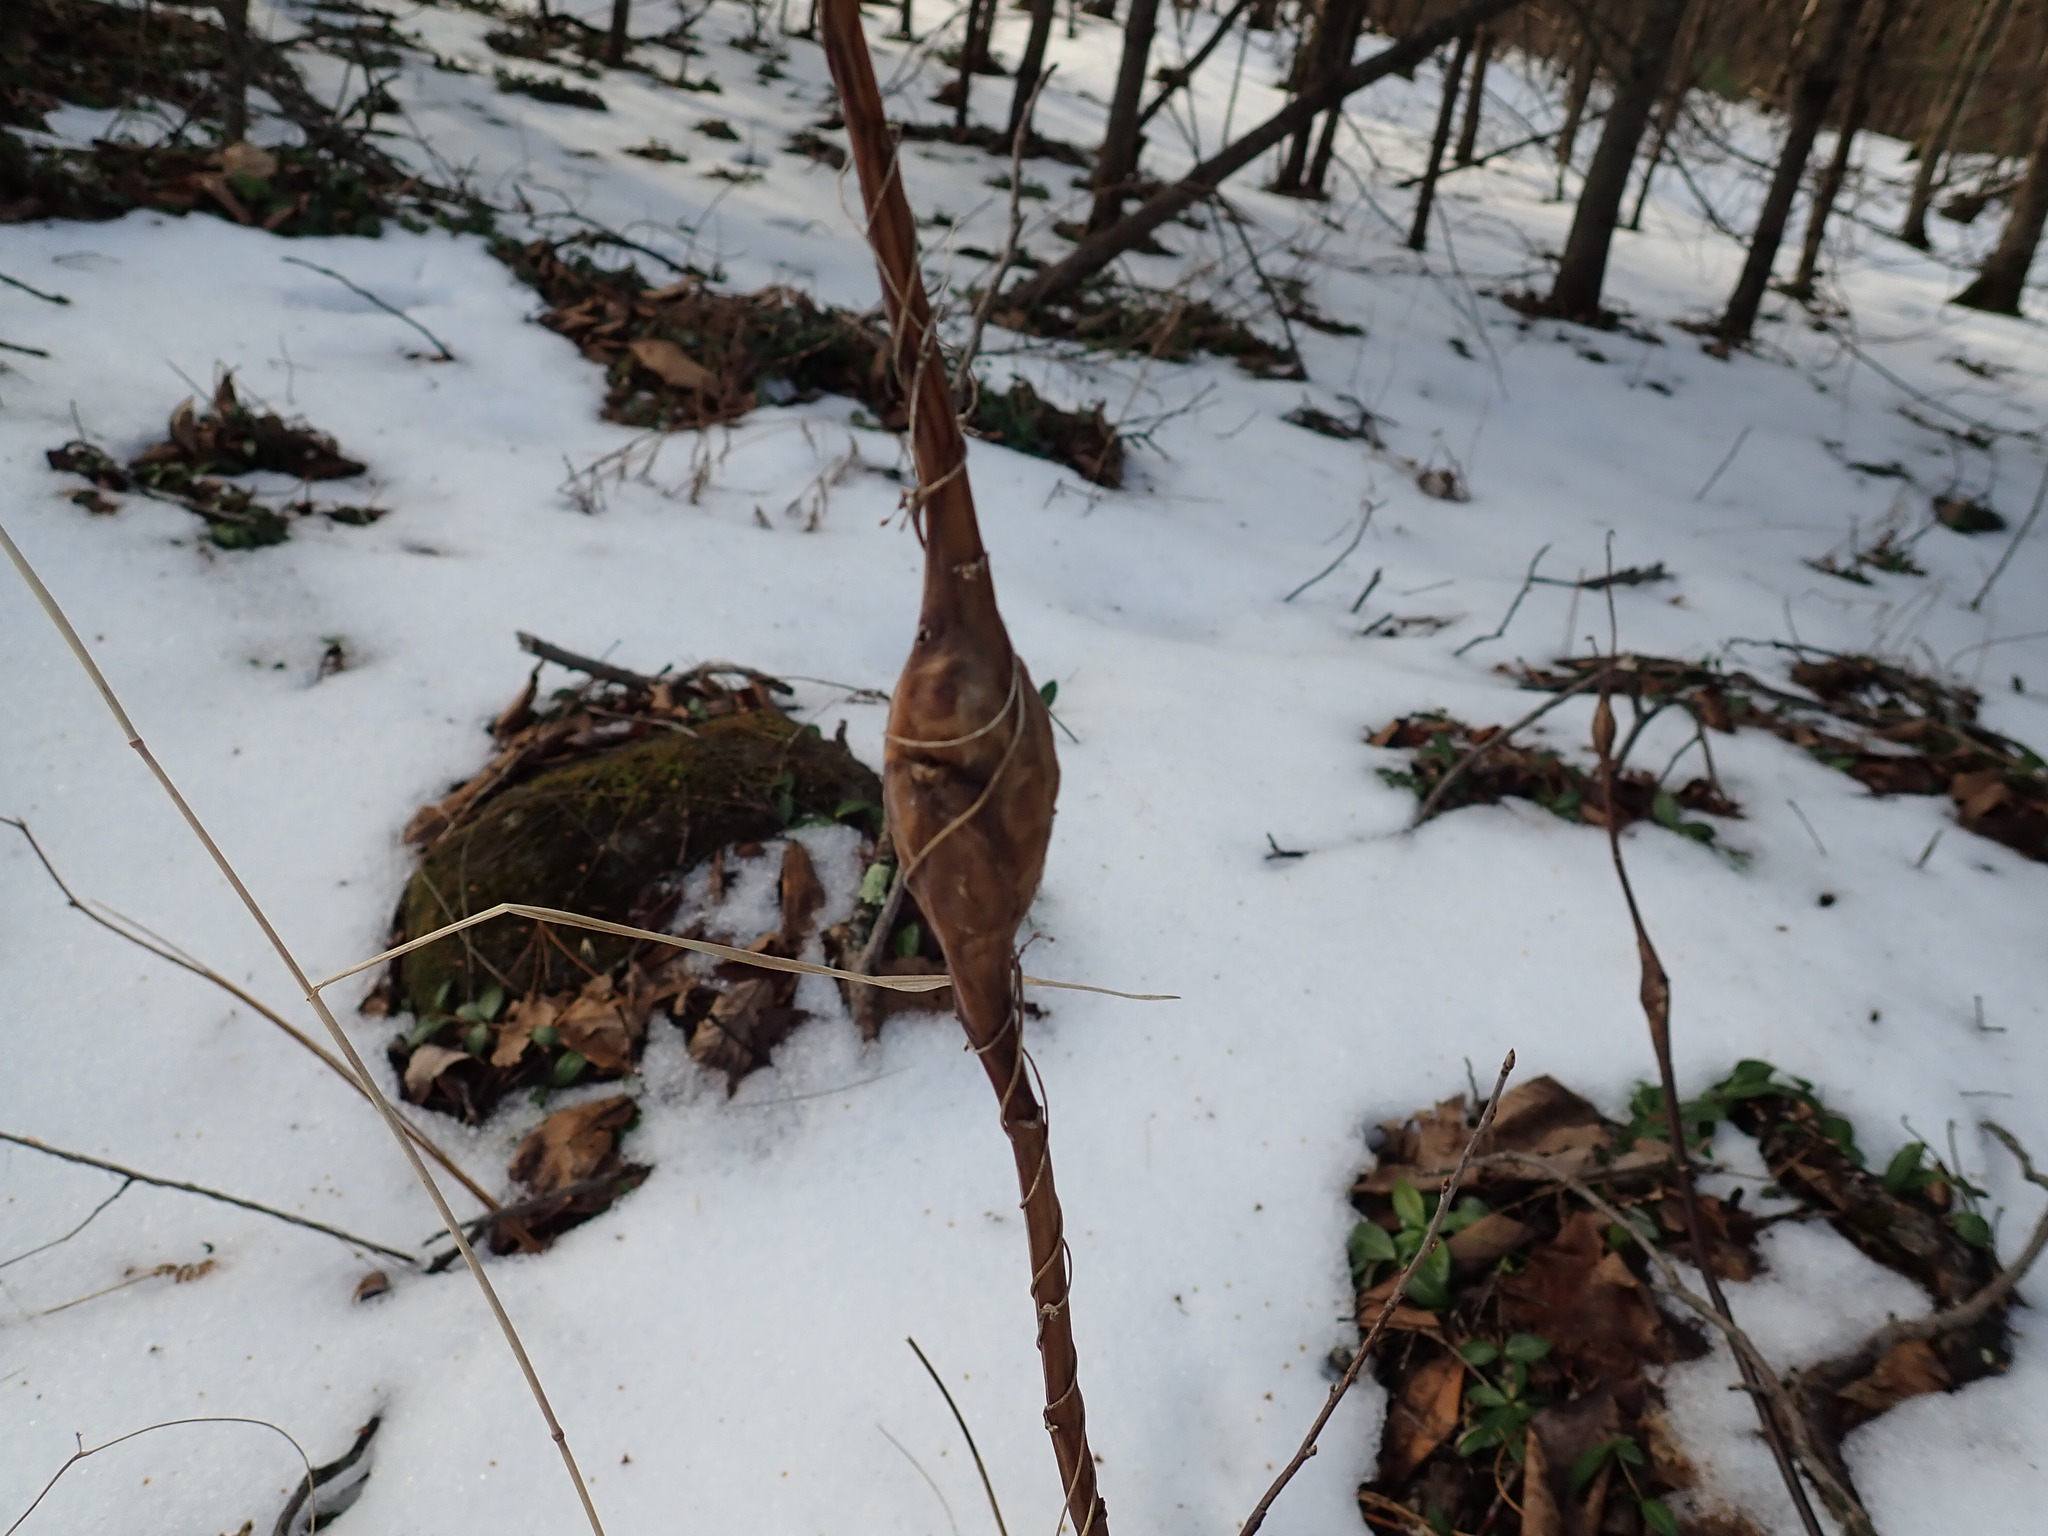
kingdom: Animalia
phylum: Arthropoda
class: Insecta
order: Lepidoptera
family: Gelechiidae
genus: Gnorimoschema
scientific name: Gnorimoschema gallaesolidaginis
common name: Goldenrod elliptical-gall moth
